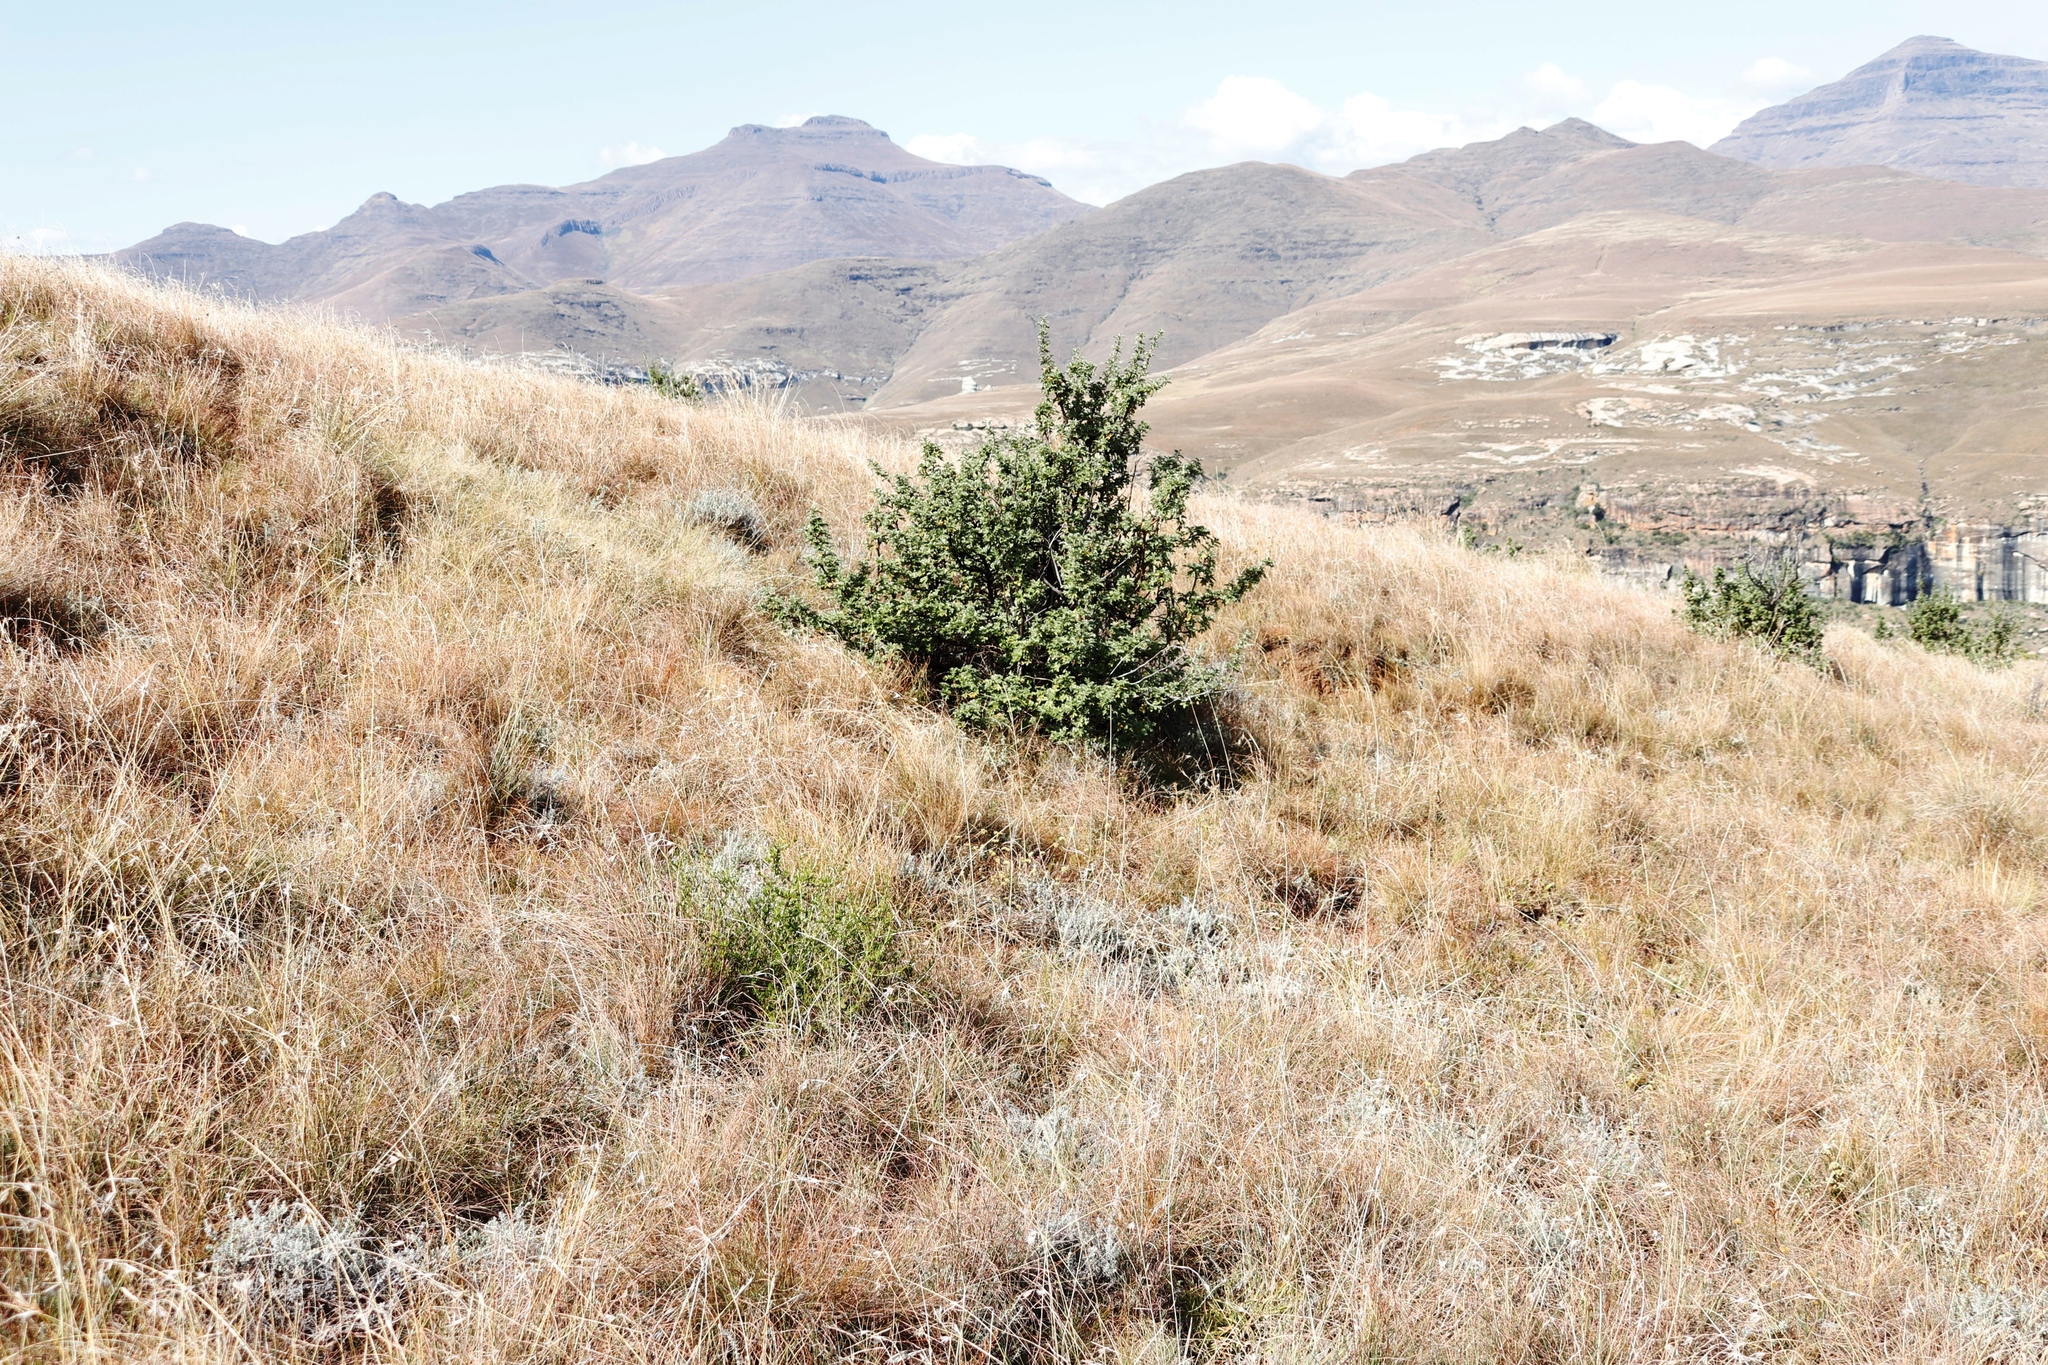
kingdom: Plantae
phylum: Tracheophyta
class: Magnoliopsida
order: Rosales
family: Rosaceae
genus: Leucosidea
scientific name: Leucosidea sericea
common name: Oldwood
